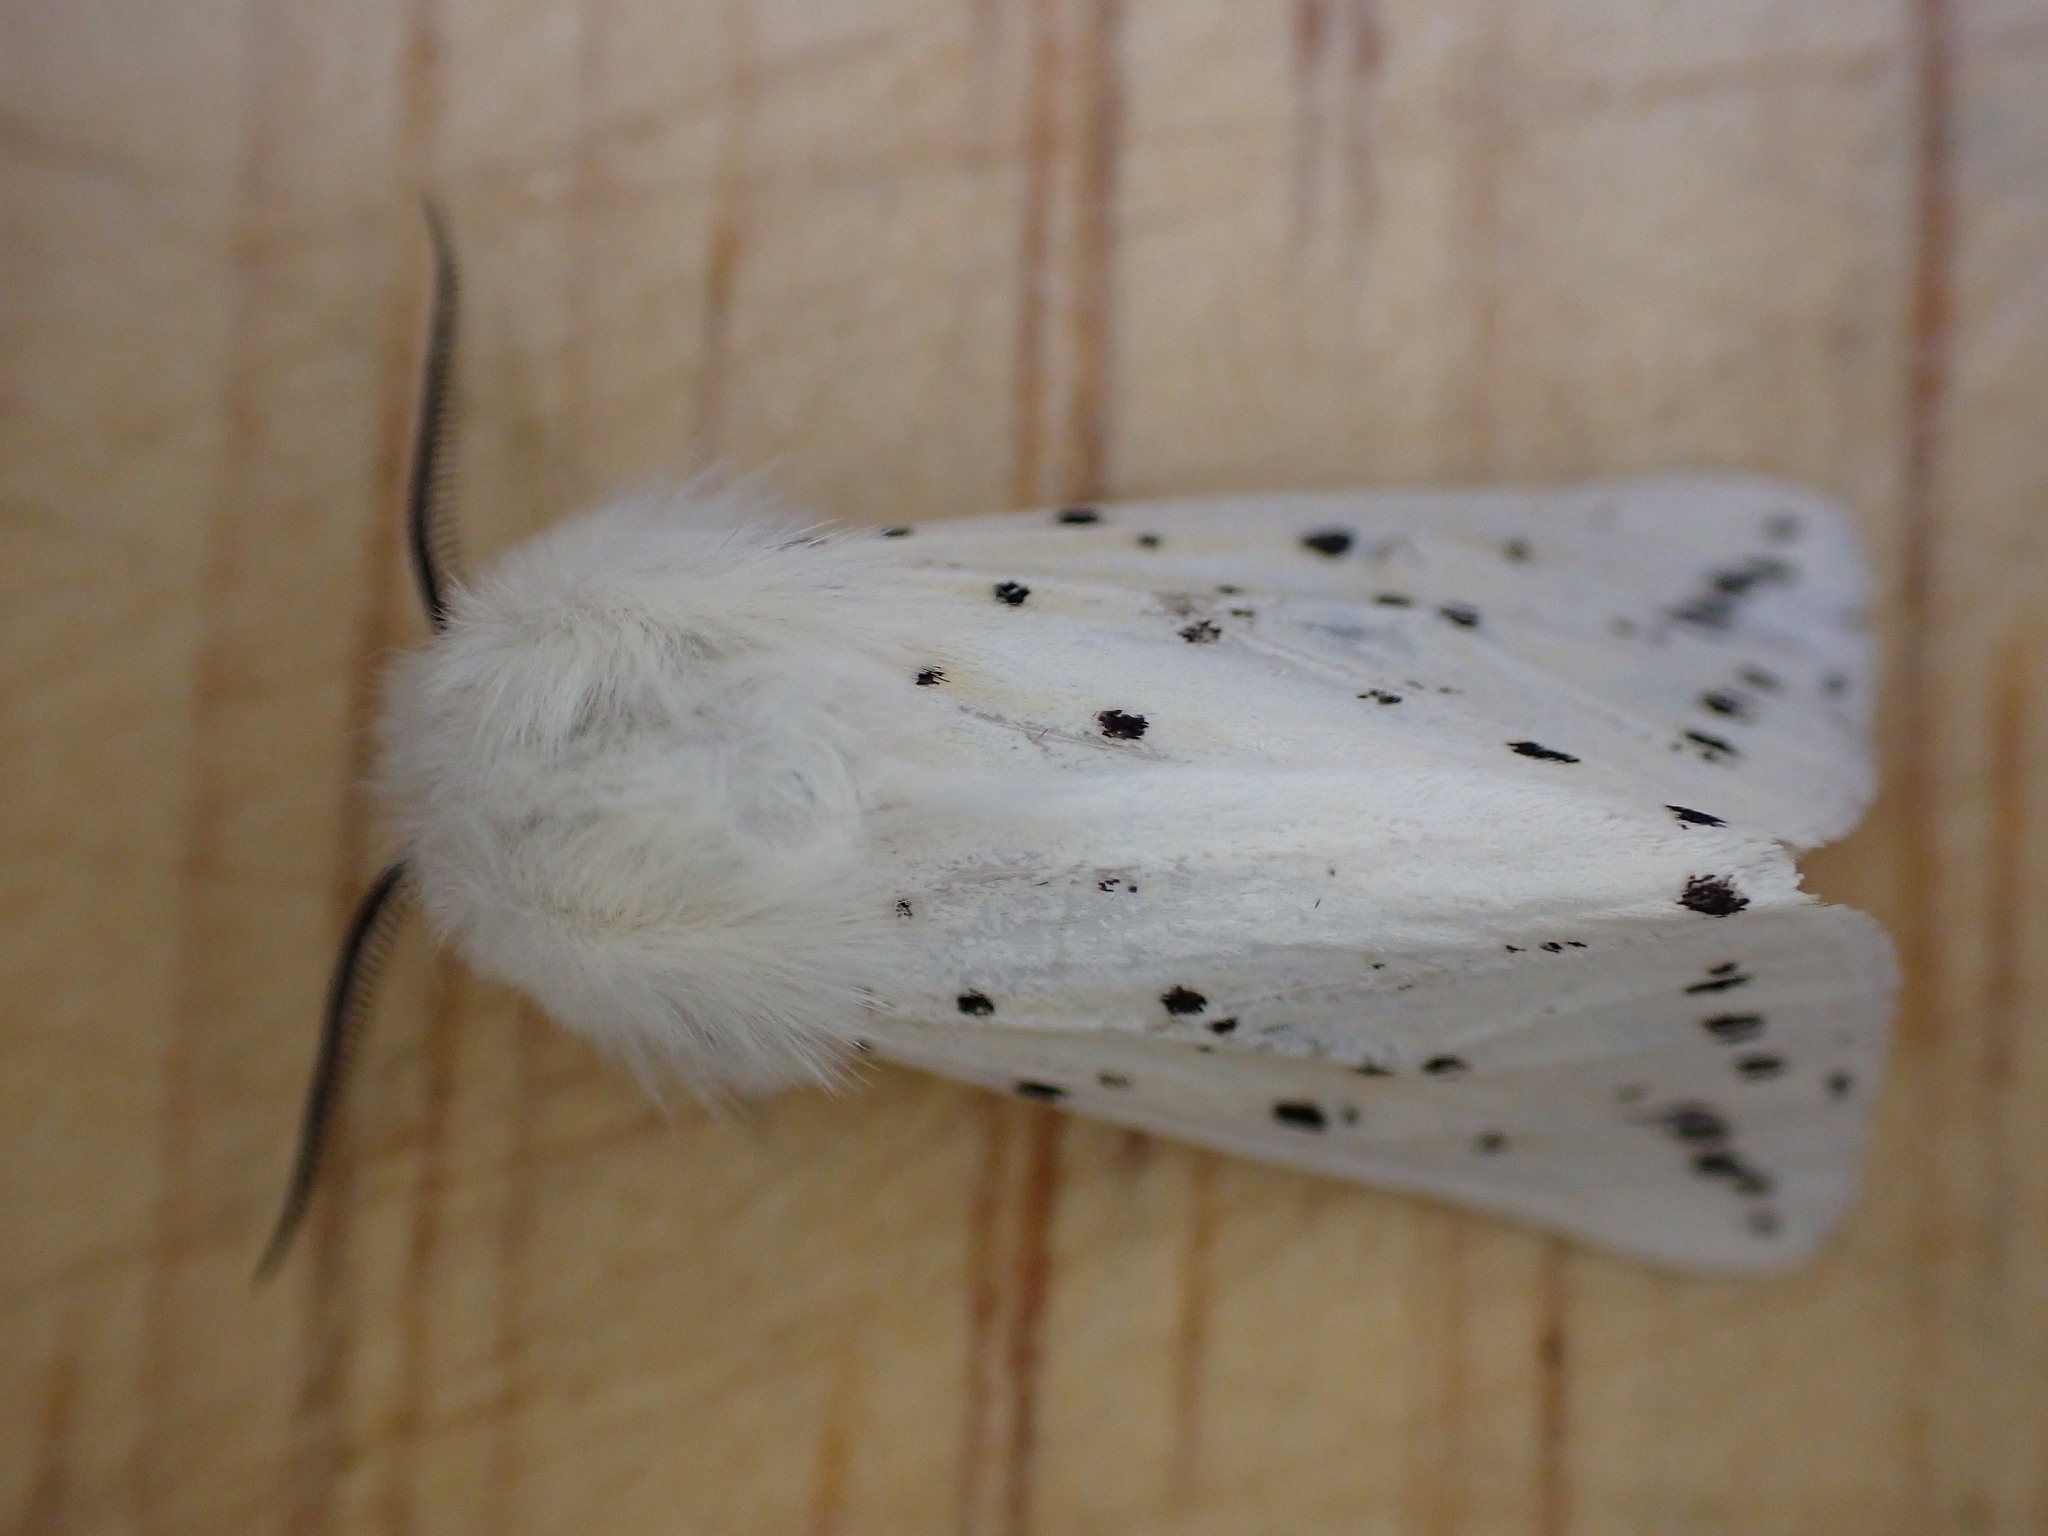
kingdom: Animalia
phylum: Arthropoda
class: Insecta
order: Lepidoptera
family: Erebidae
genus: Spilosoma
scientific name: Spilosoma lubricipeda
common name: White ermine
